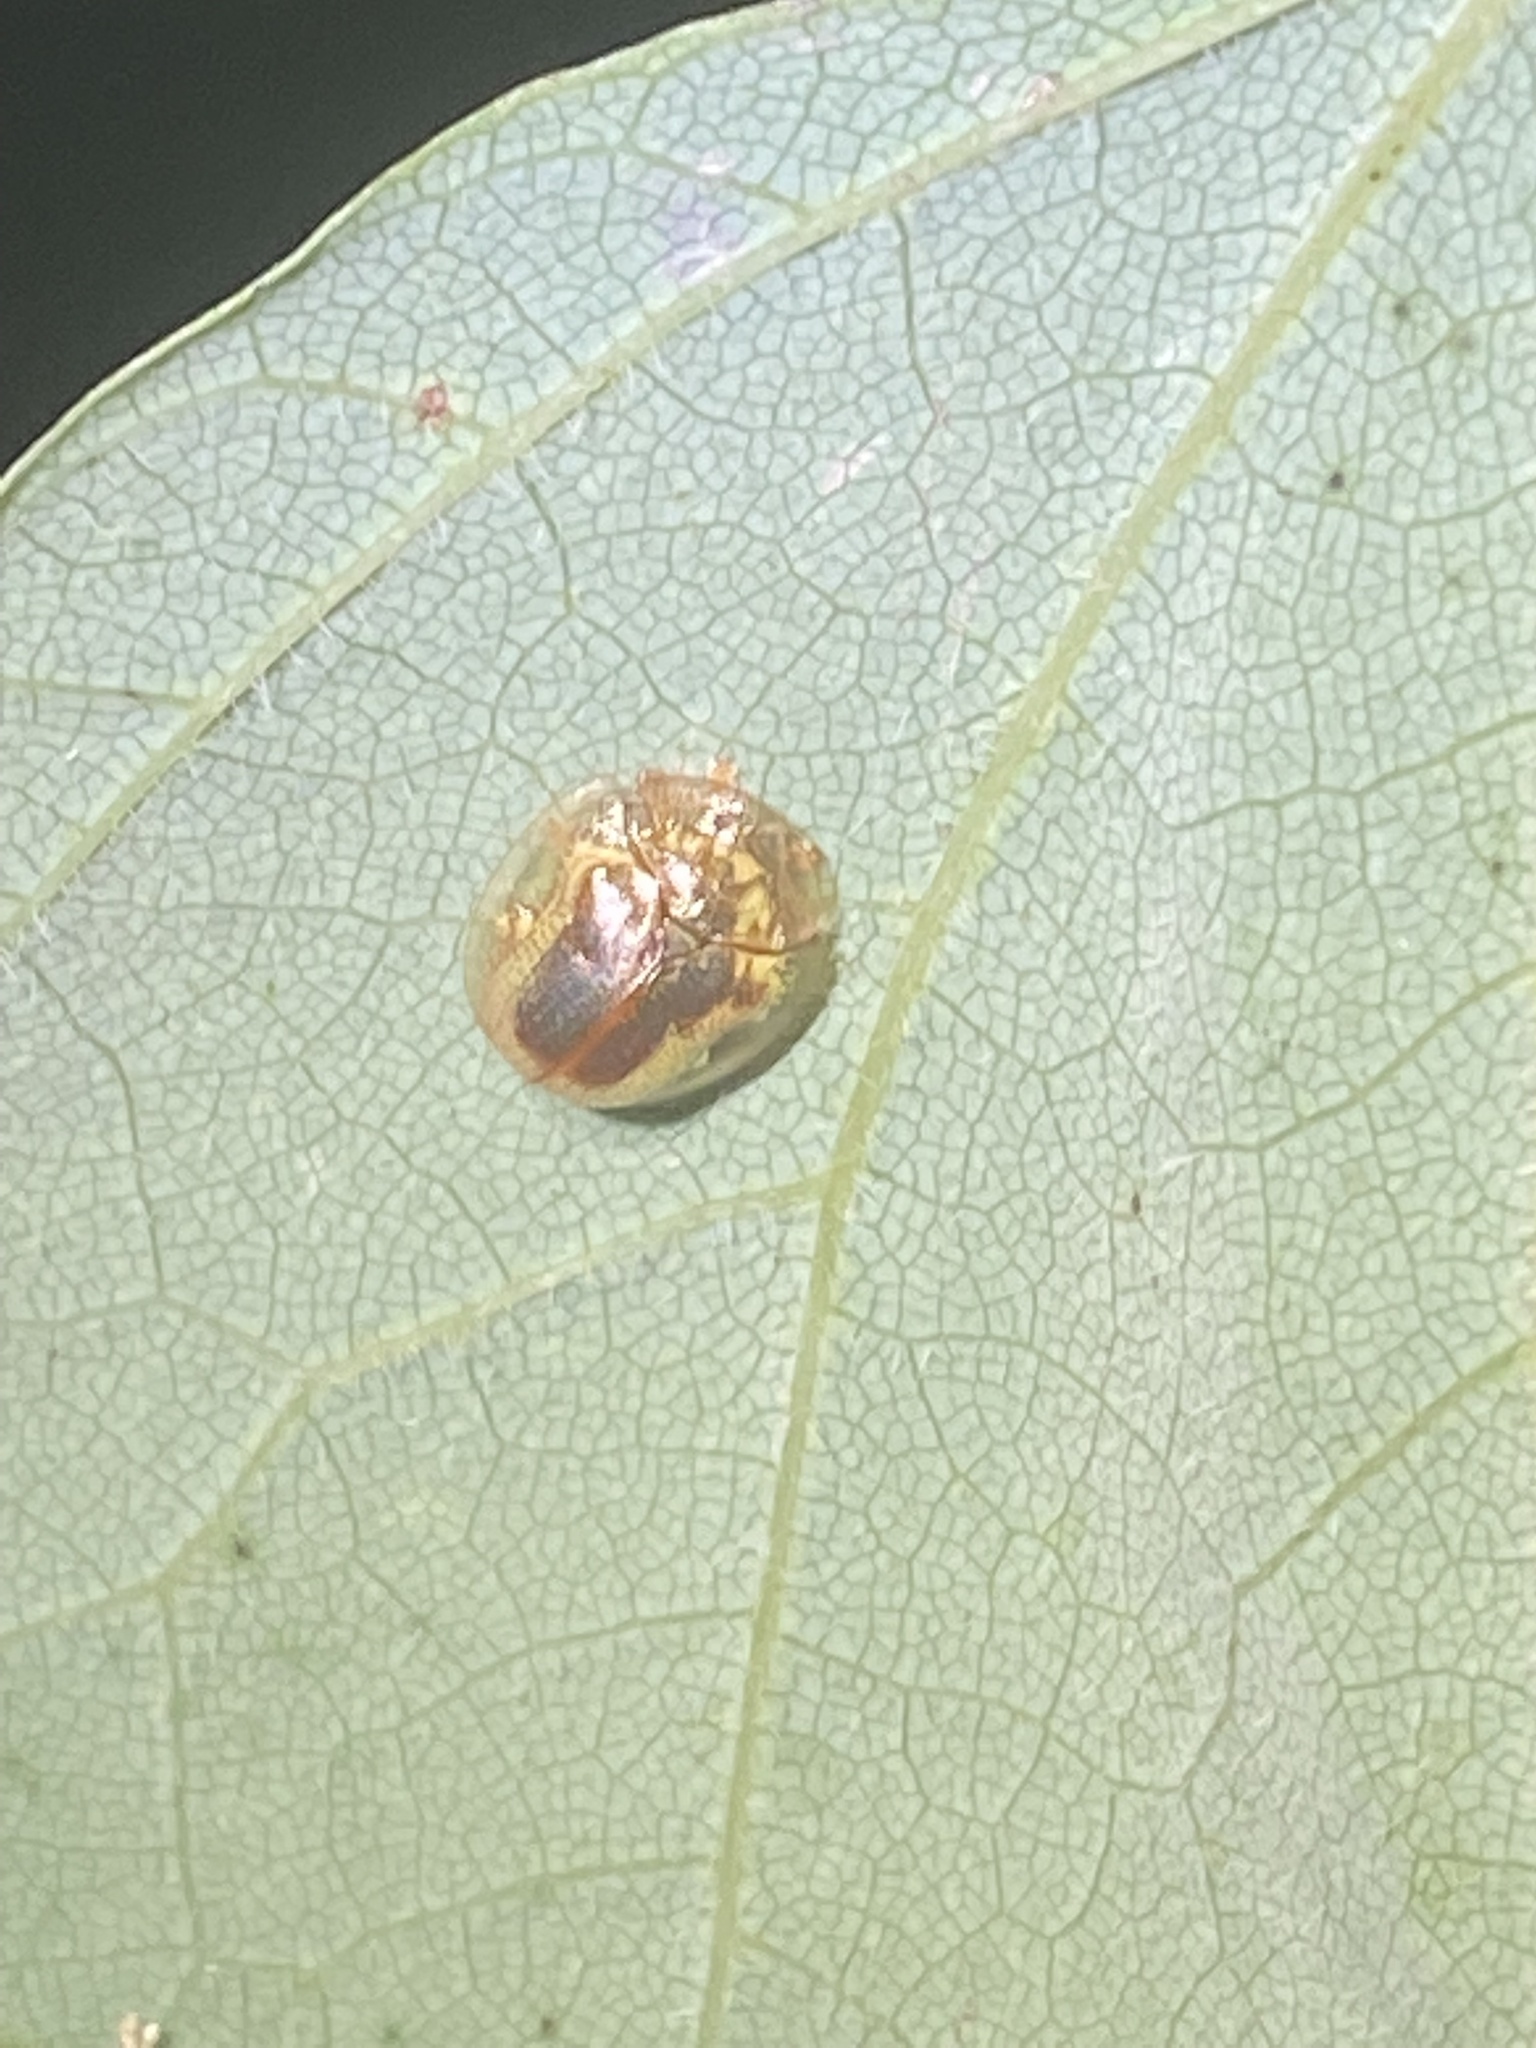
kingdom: Animalia
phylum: Arthropoda
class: Insecta
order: Coleoptera
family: Chrysomelidae
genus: Charidotella
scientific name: Charidotella sexpunctata
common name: Golden tortoise beetle
